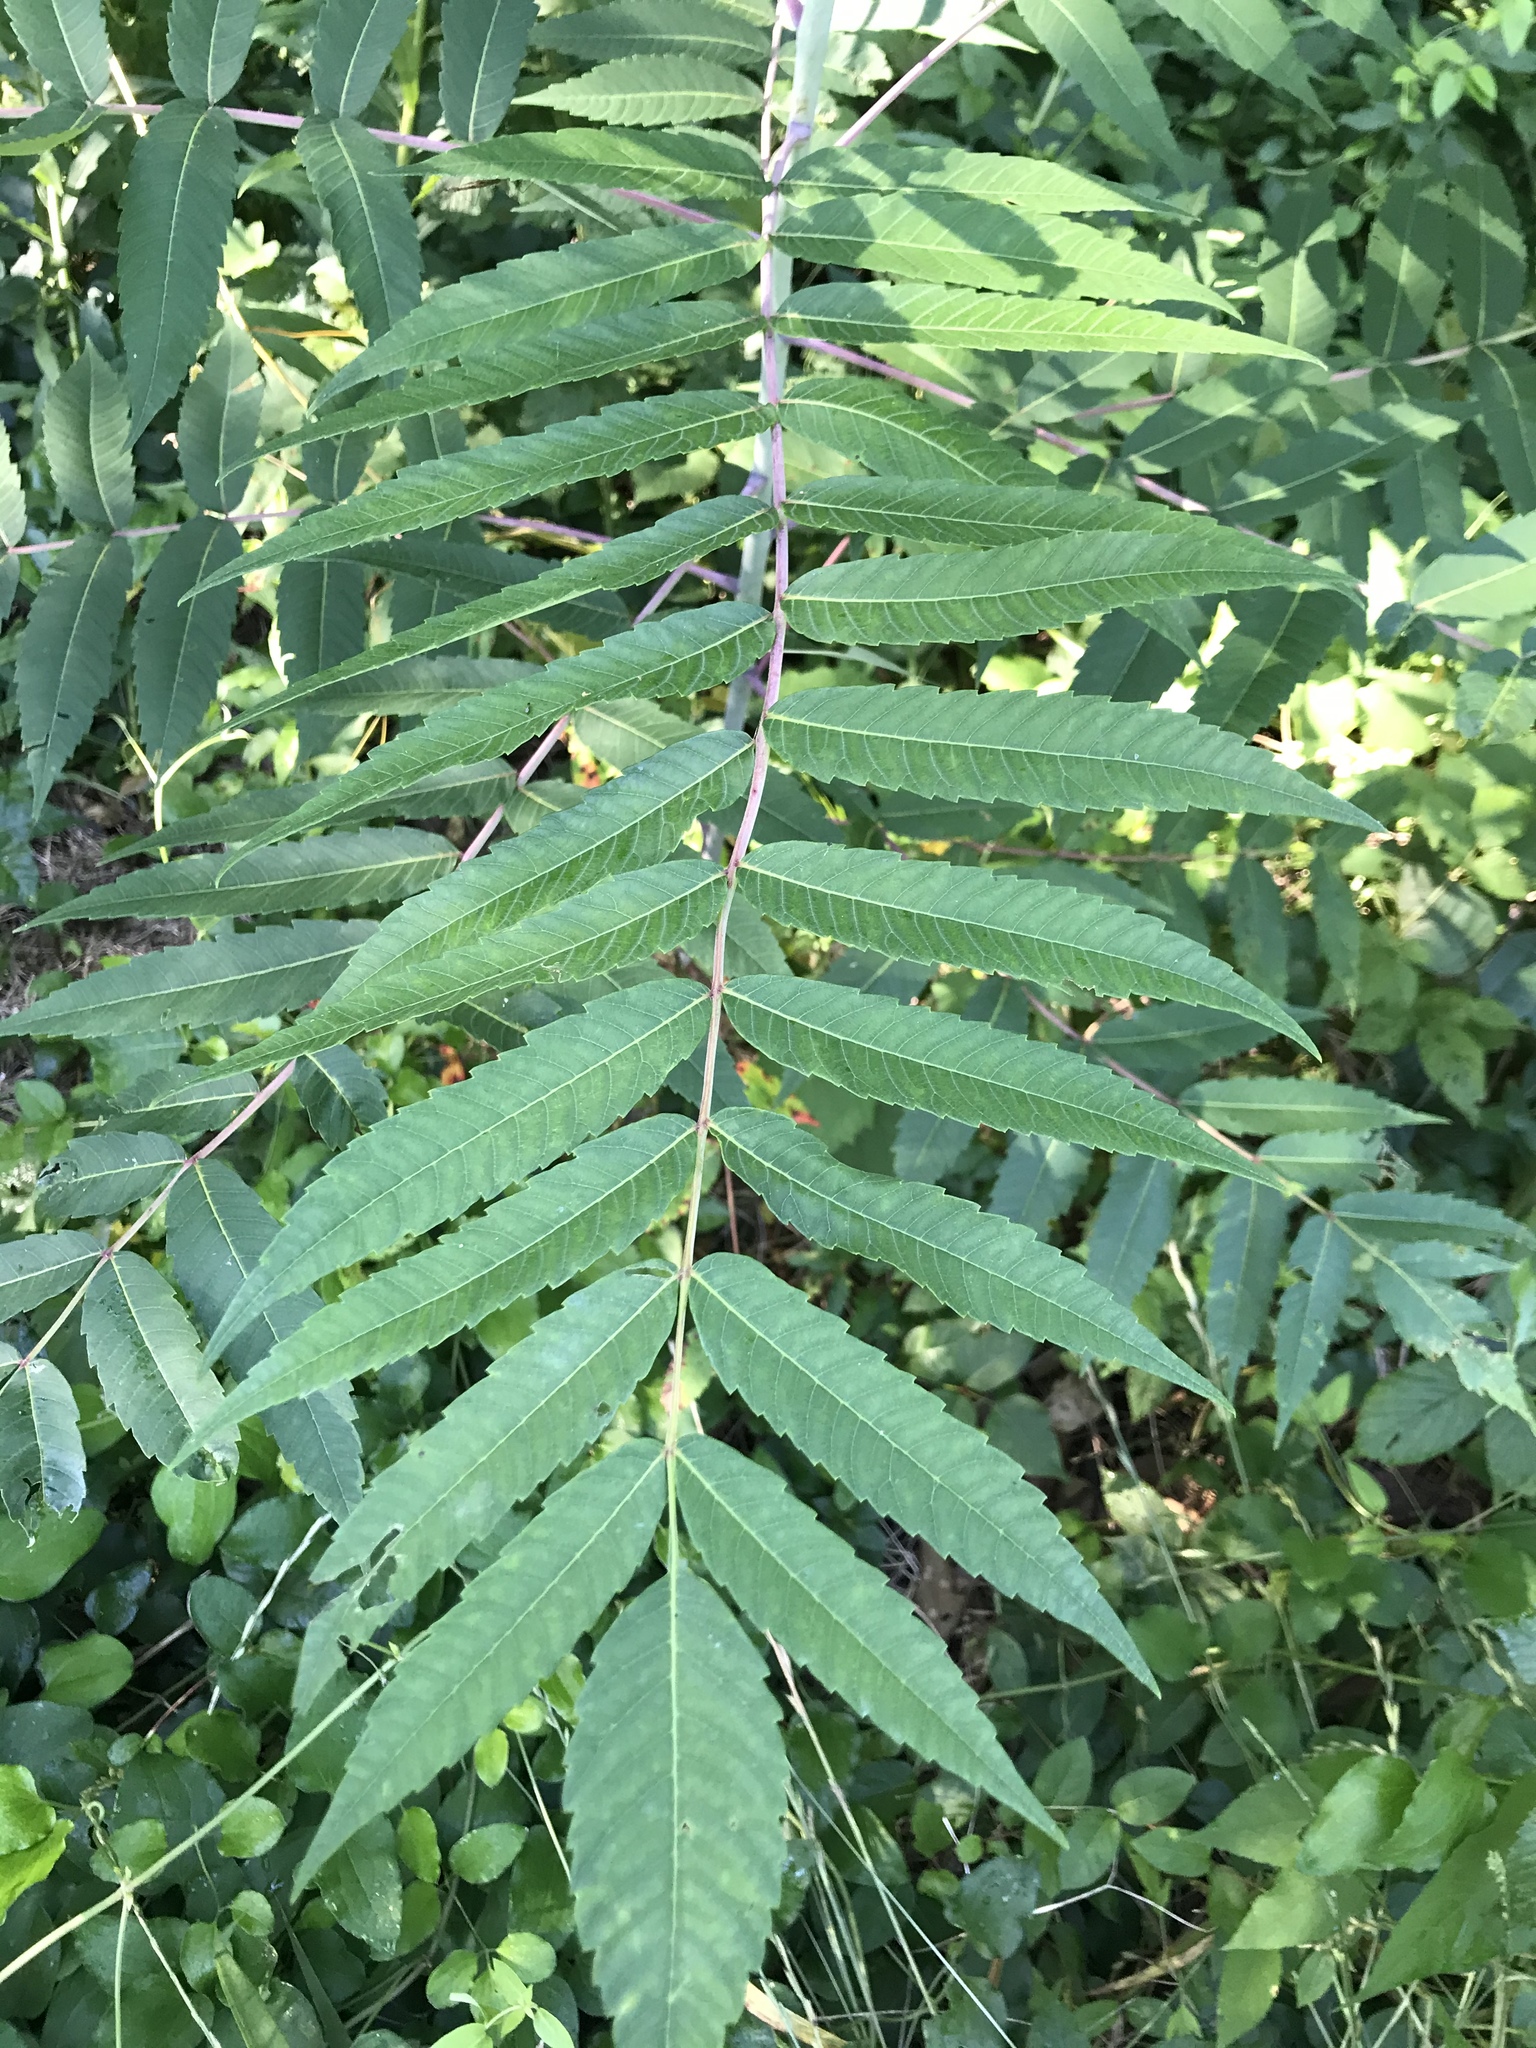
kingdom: Plantae
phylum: Tracheophyta
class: Magnoliopsida
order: Sapindales
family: Anacardiaceae
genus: Rhus
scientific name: Rhus glabra
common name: Scarlet sumac
